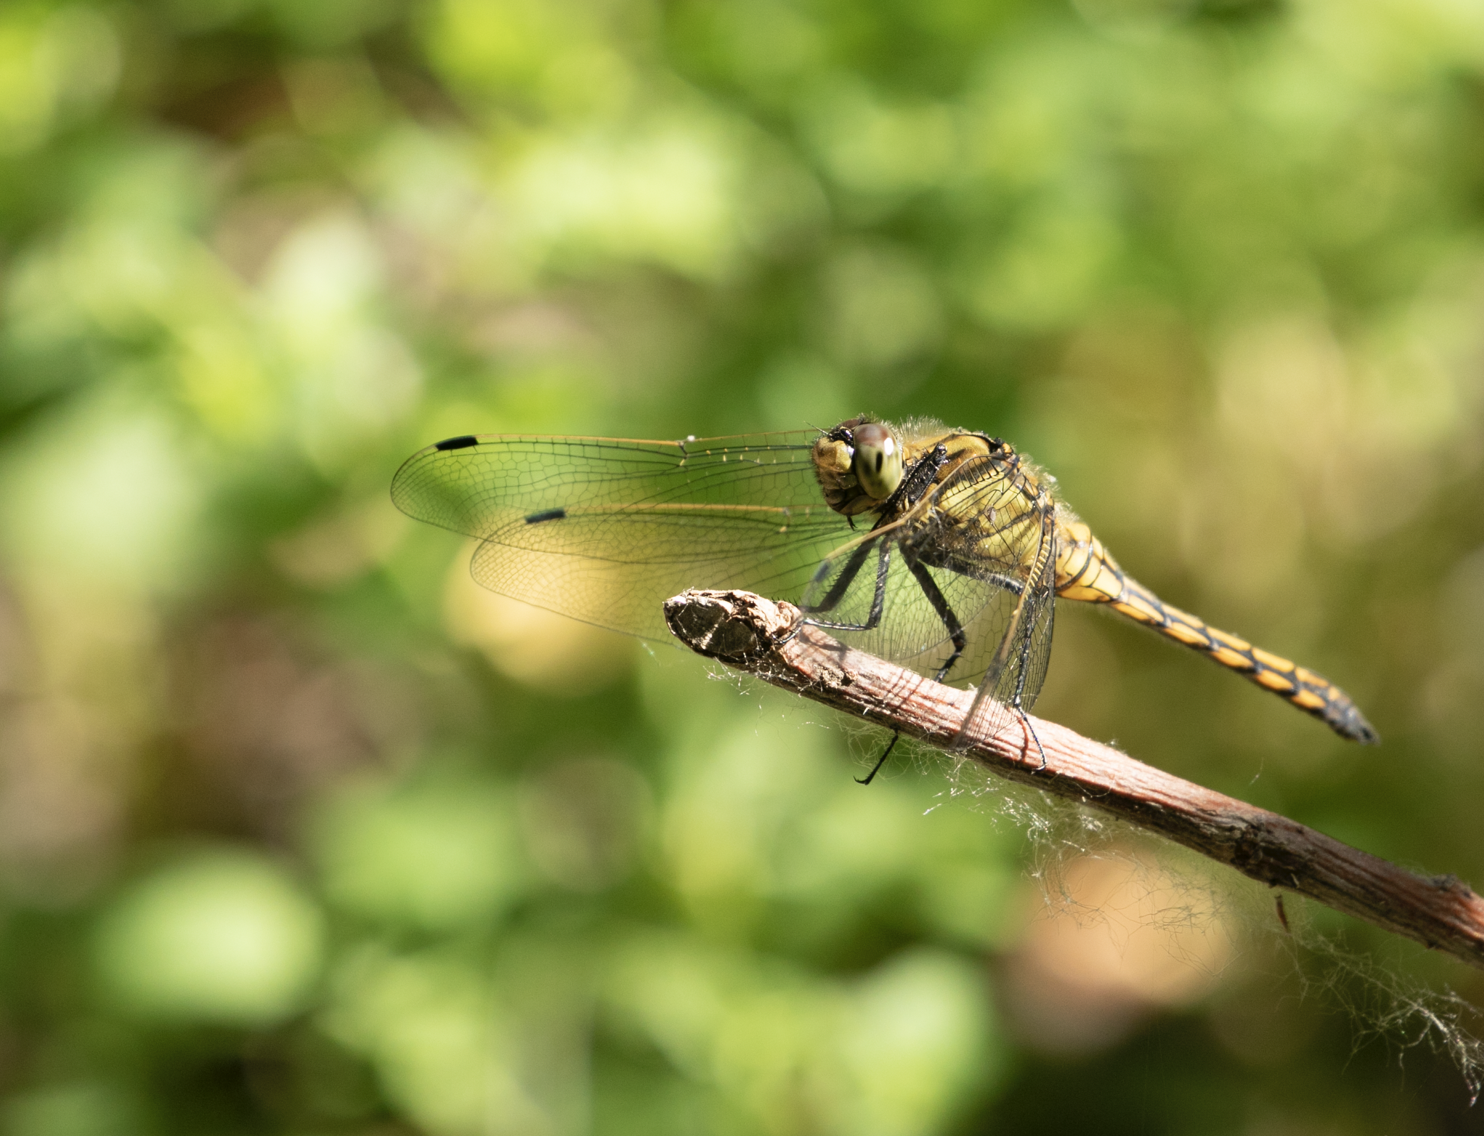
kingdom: Animalia
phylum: Arthropoda
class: Insecta
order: Odonata
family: Libellulidae
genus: Orthetrum
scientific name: Orthetrum cancellatum
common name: Black-tailed skimmer
